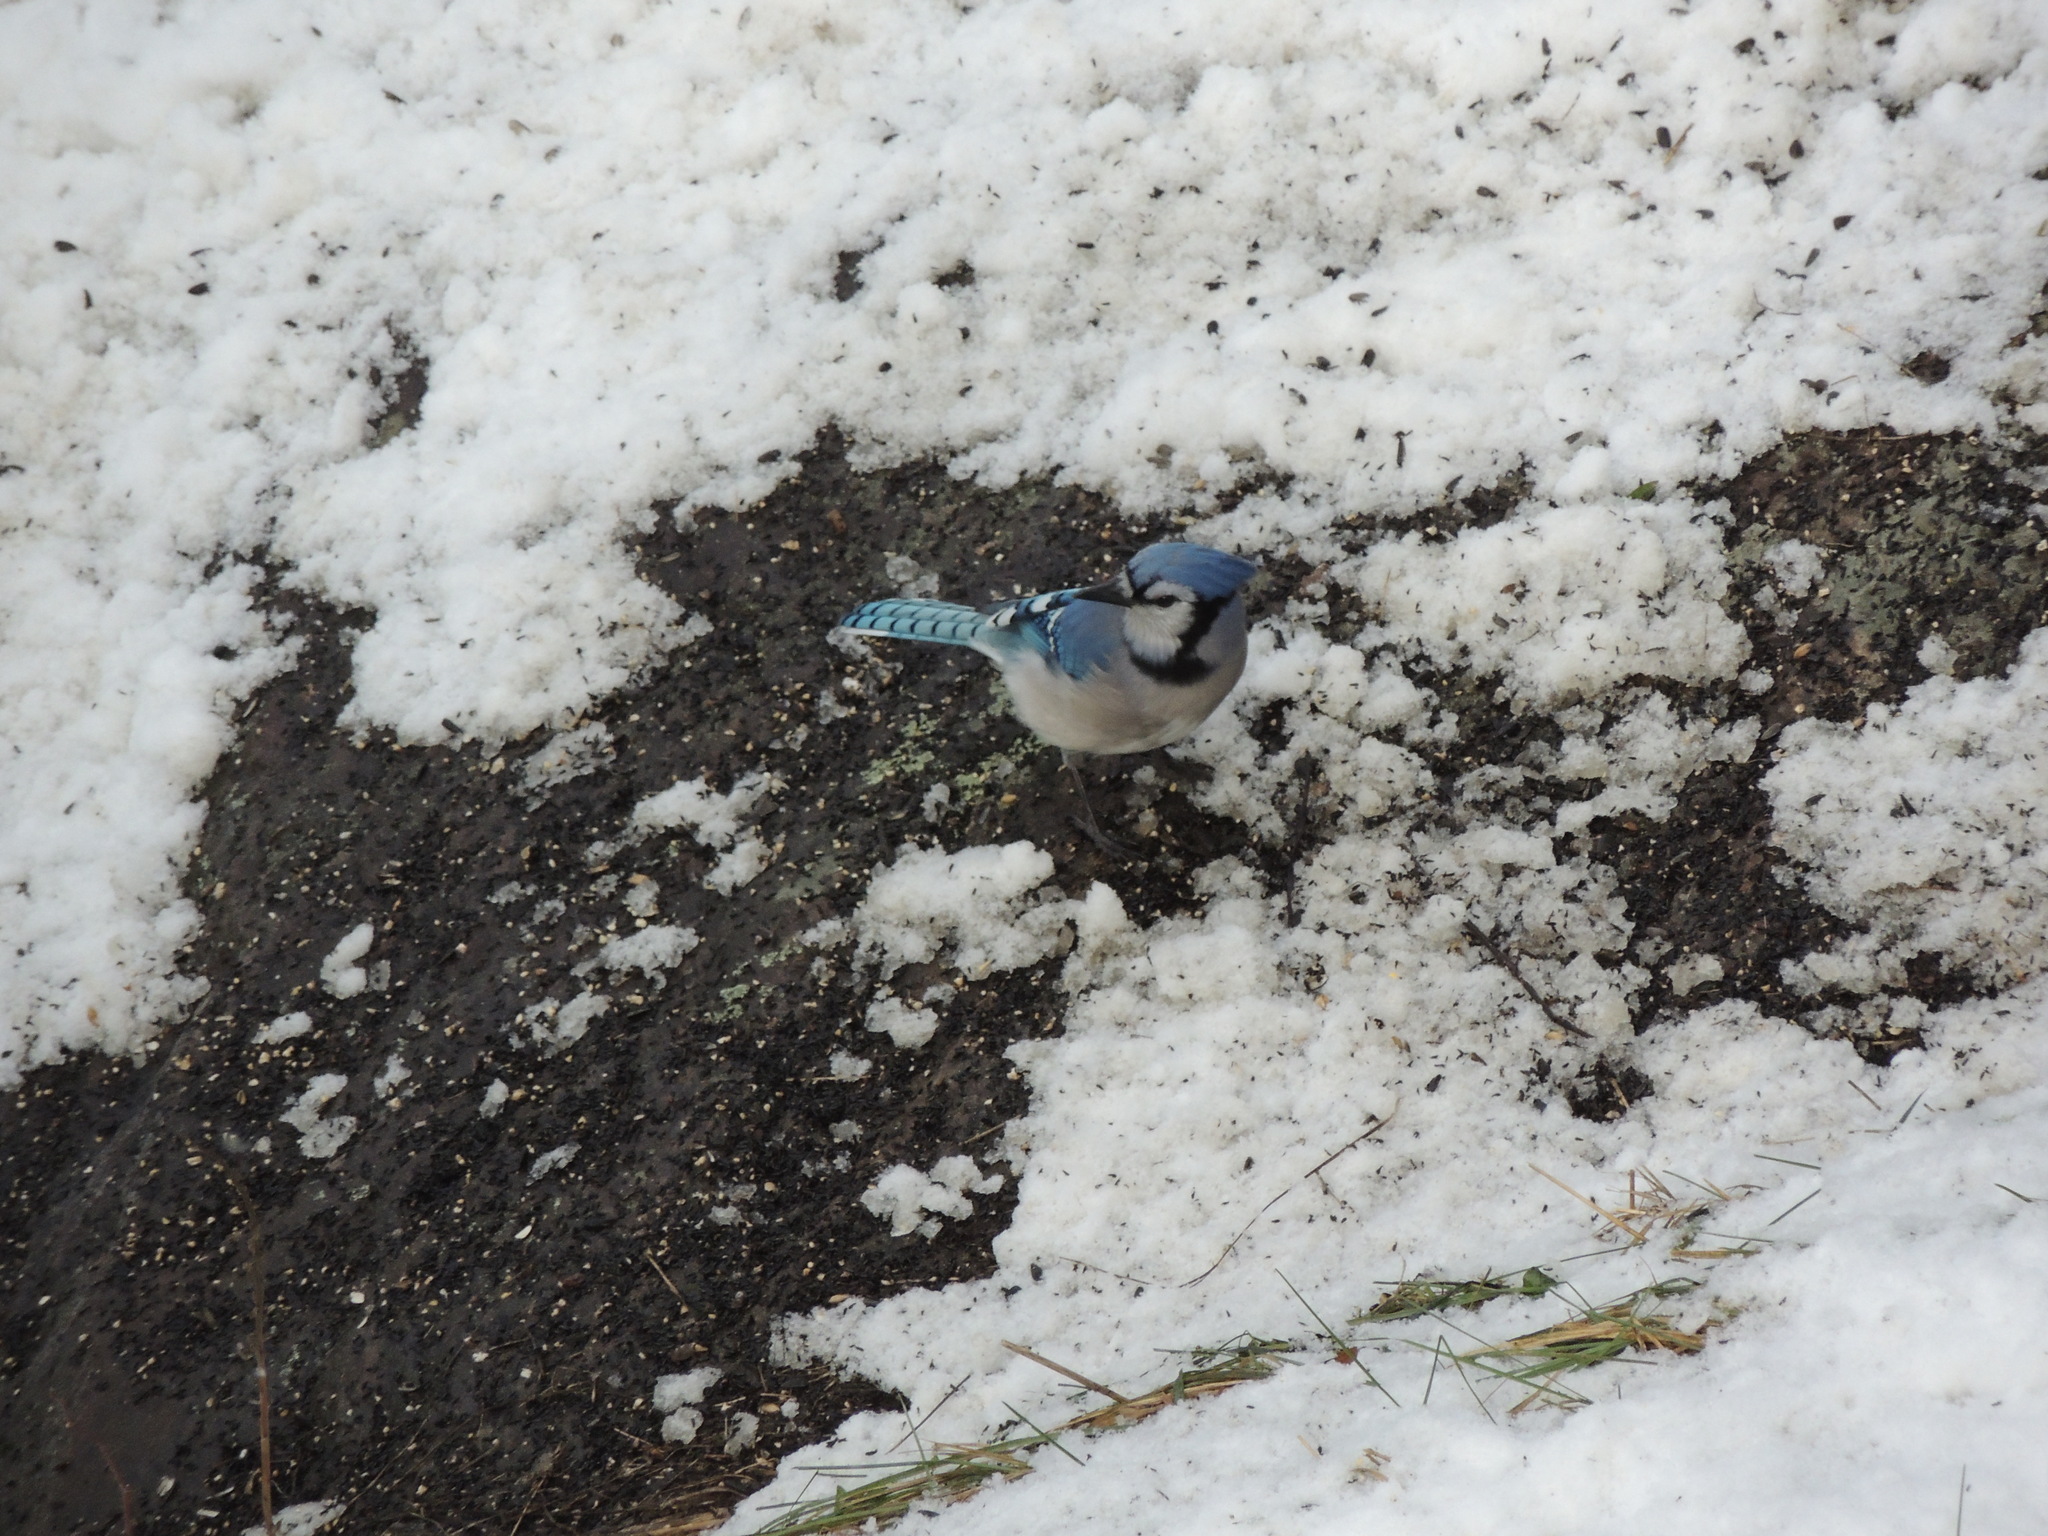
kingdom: Animalia
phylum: Chordata
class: Aves
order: Passeriformes
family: Corvidae
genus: Cyanocitta
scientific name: Cyanocitta cristata
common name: Blue jay
